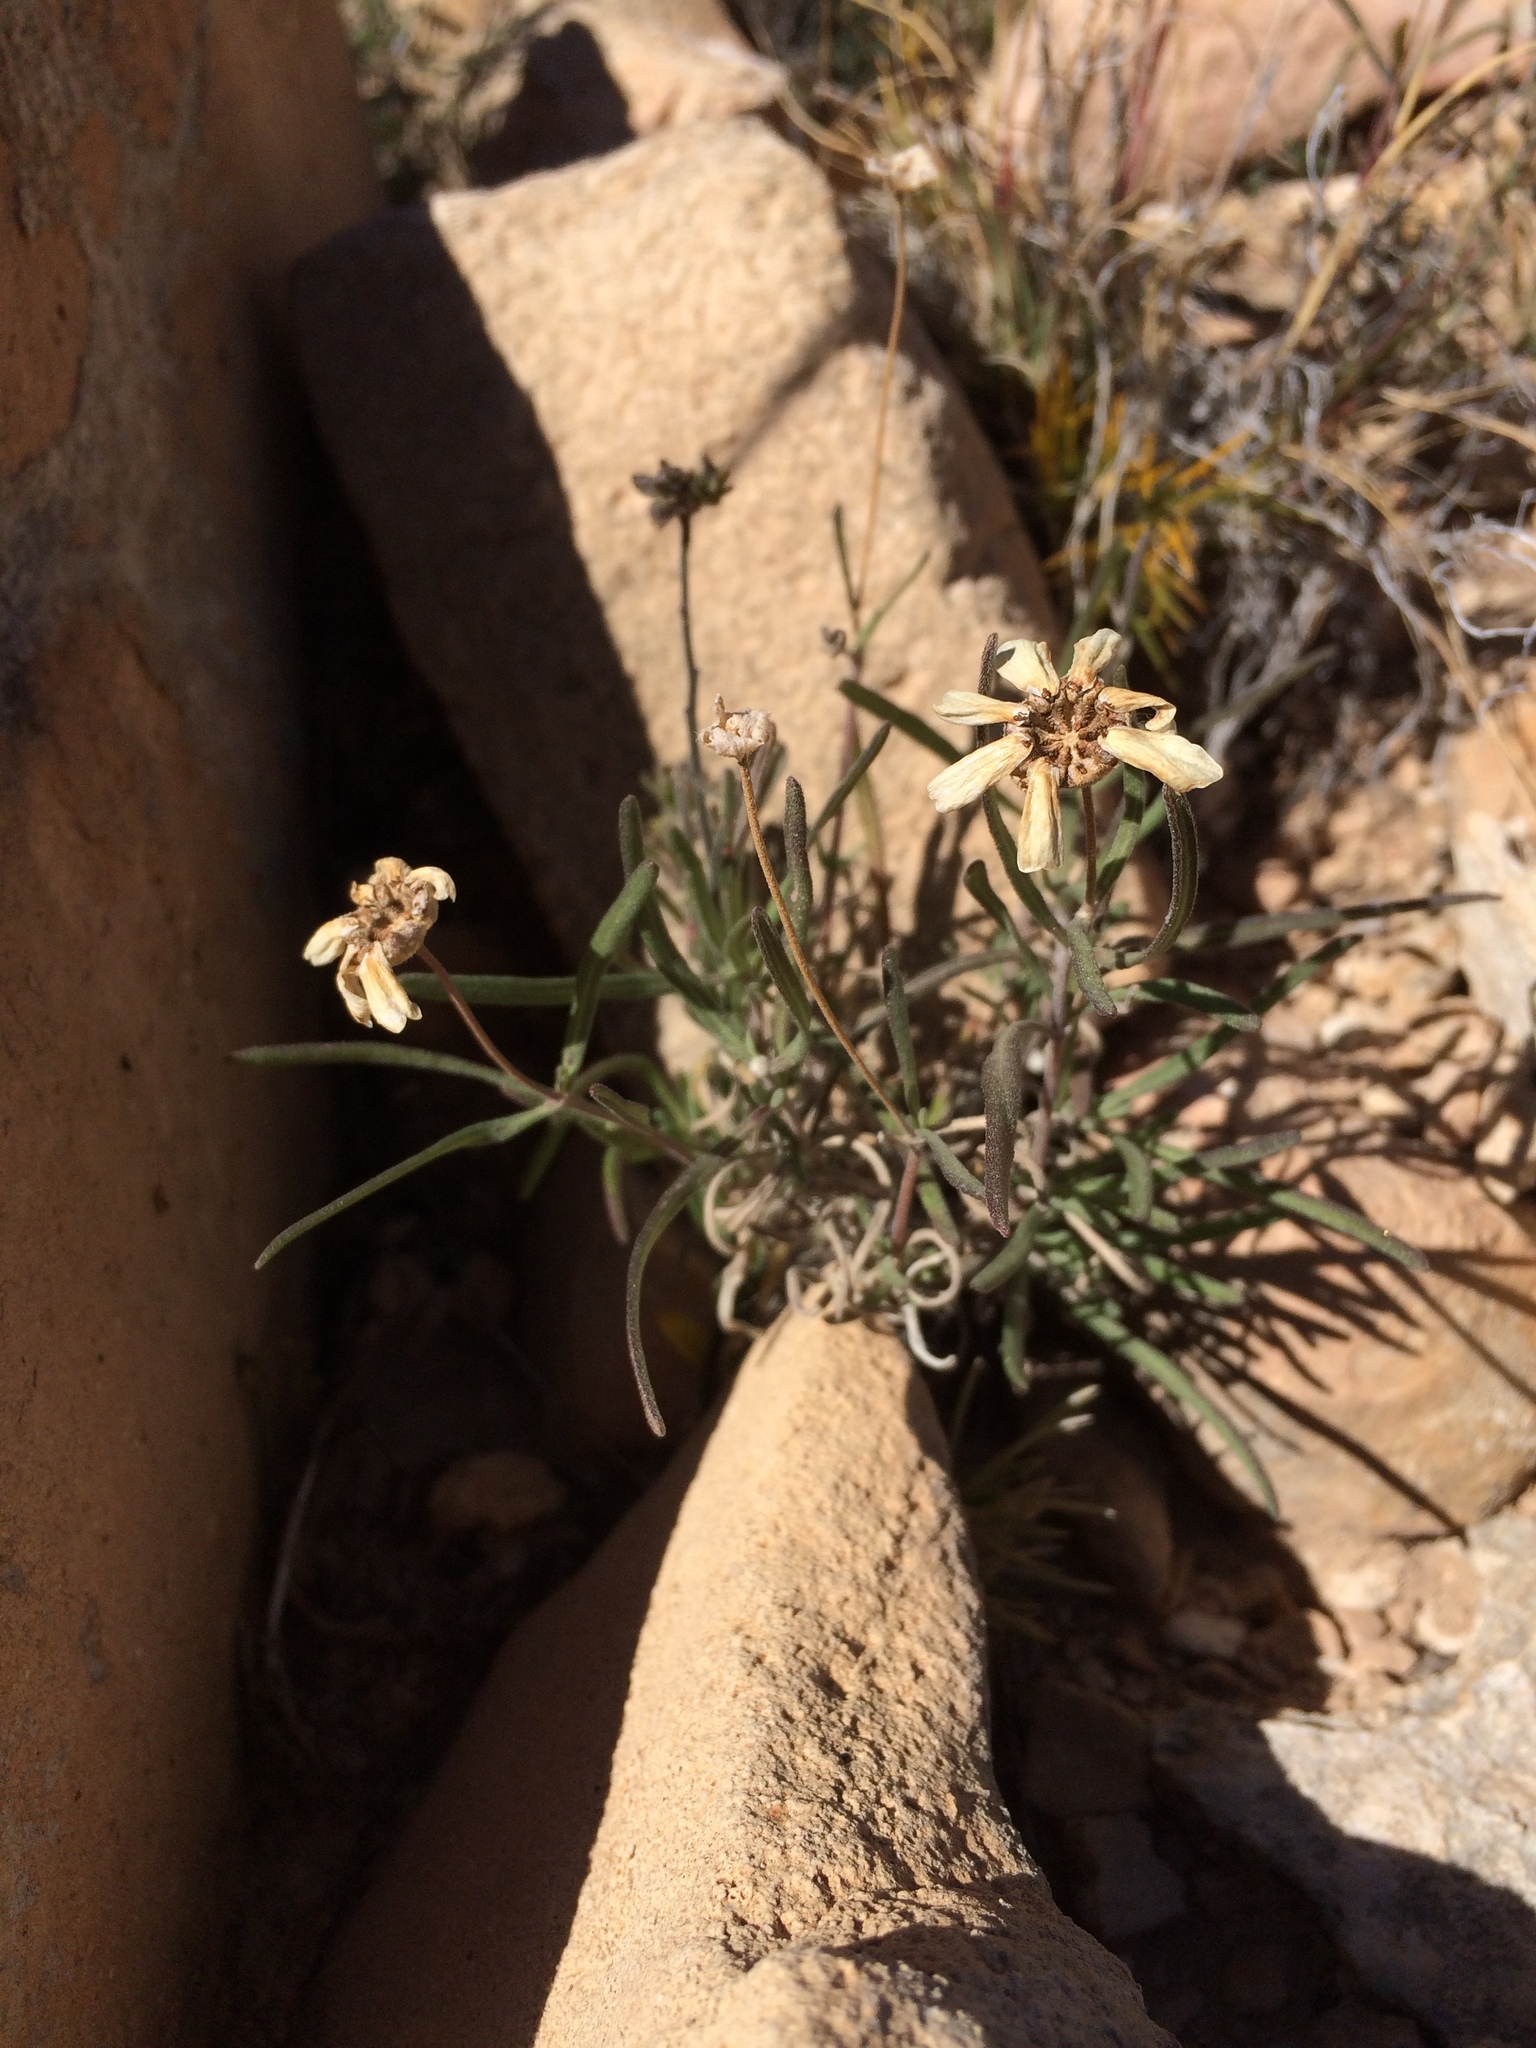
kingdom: Plantae
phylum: Tracheophyta
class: Magnoliopsida
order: Asterales
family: Asteraceae
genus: Melampodium
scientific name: Melampodium leucanthum
